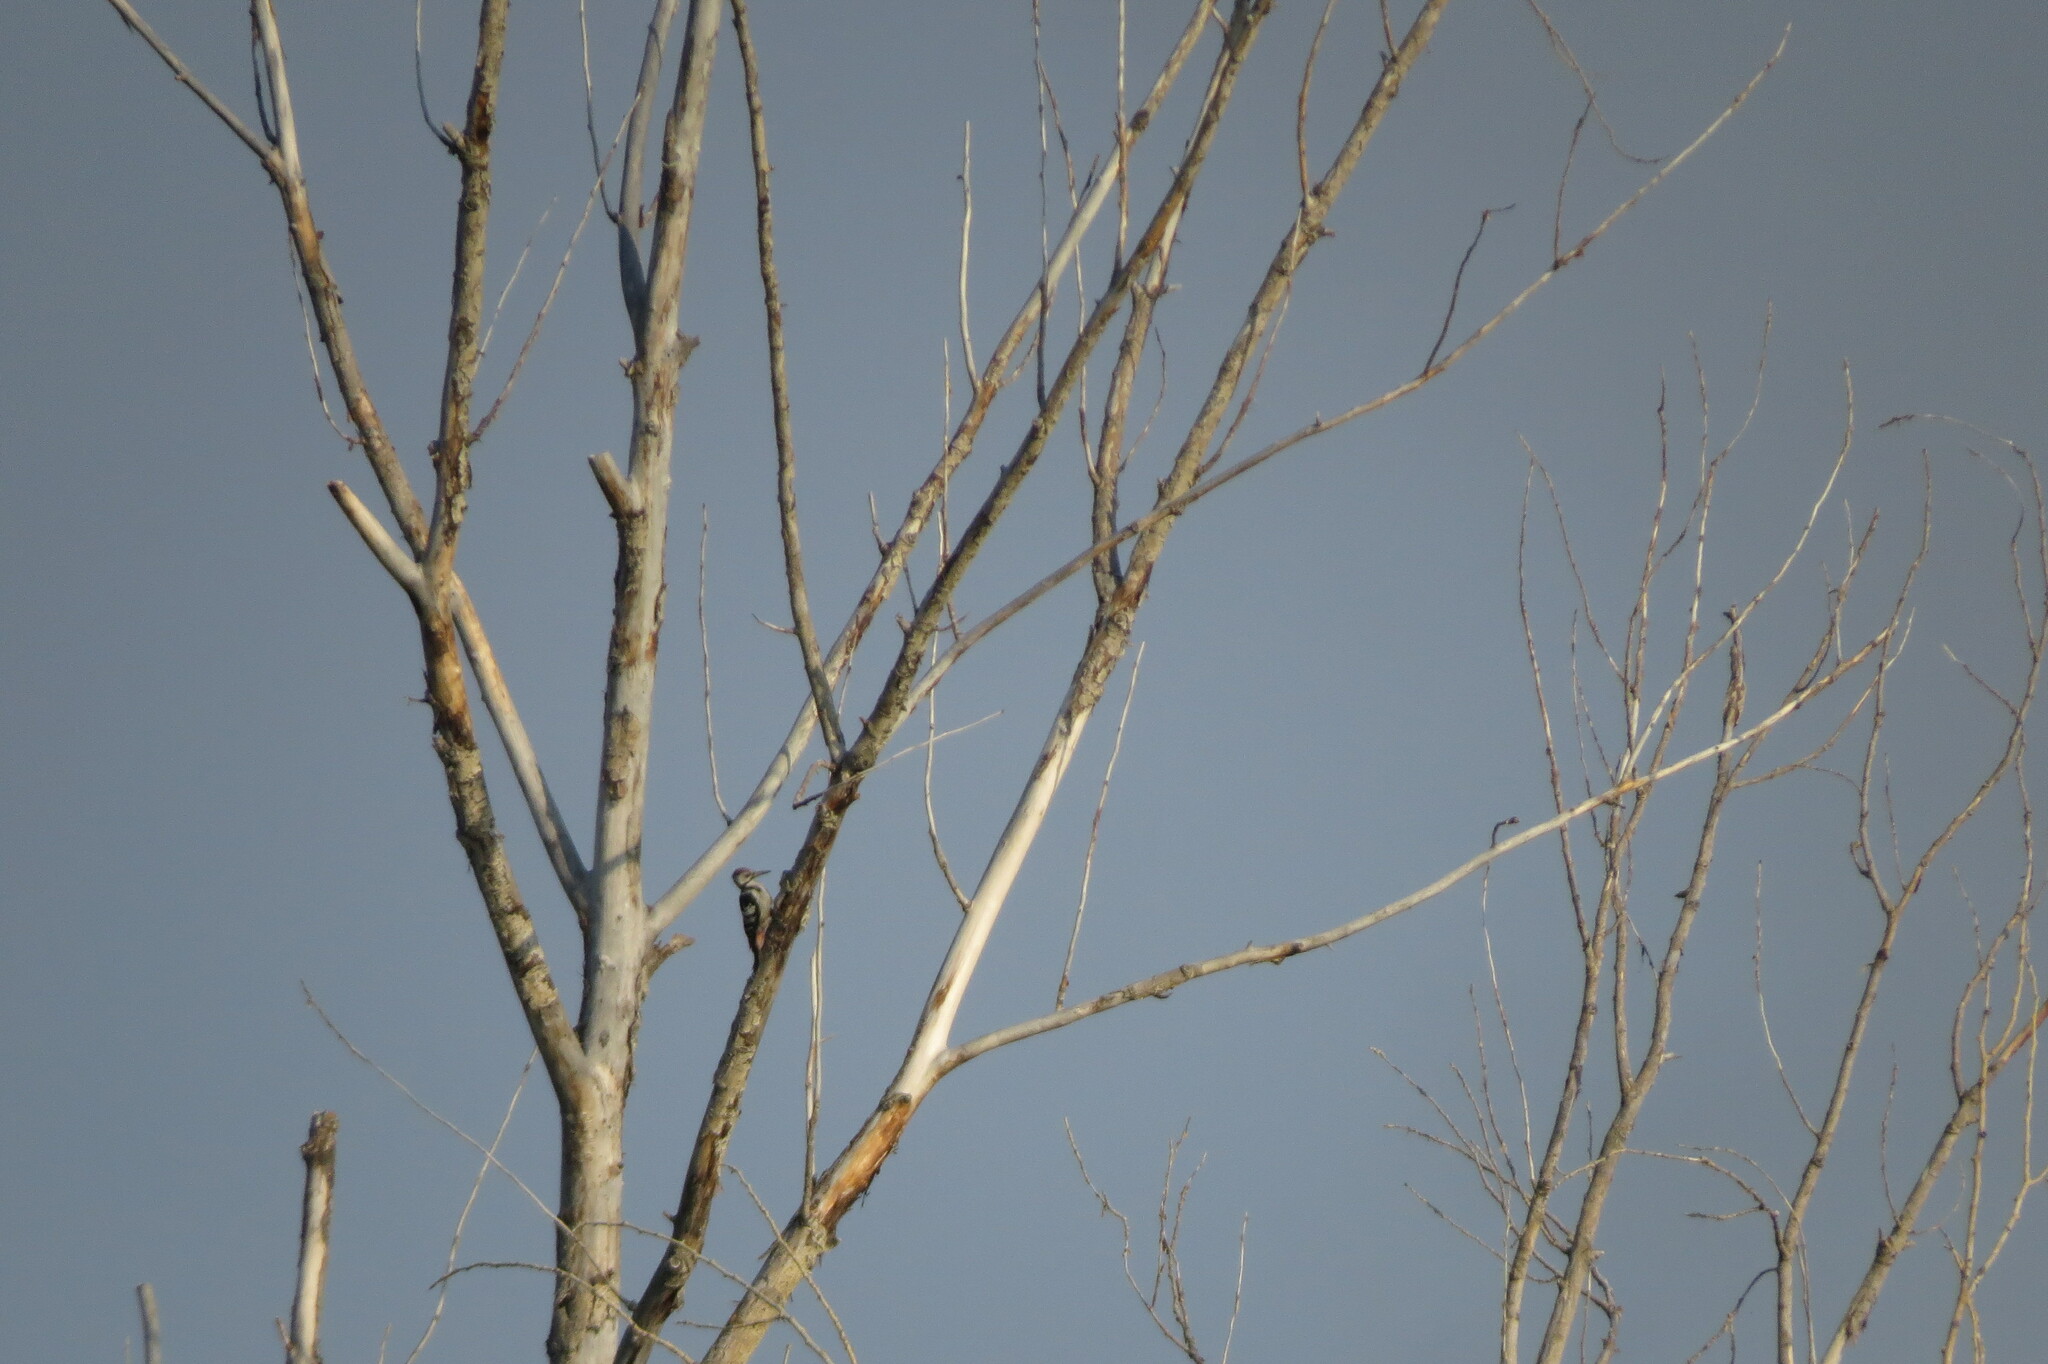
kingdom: Animalia
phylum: Chordata
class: Aves
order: Piciformes
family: Picidae
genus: Dendrocopos
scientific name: Dendrocopos leucotos
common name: White-backed woodpecker
